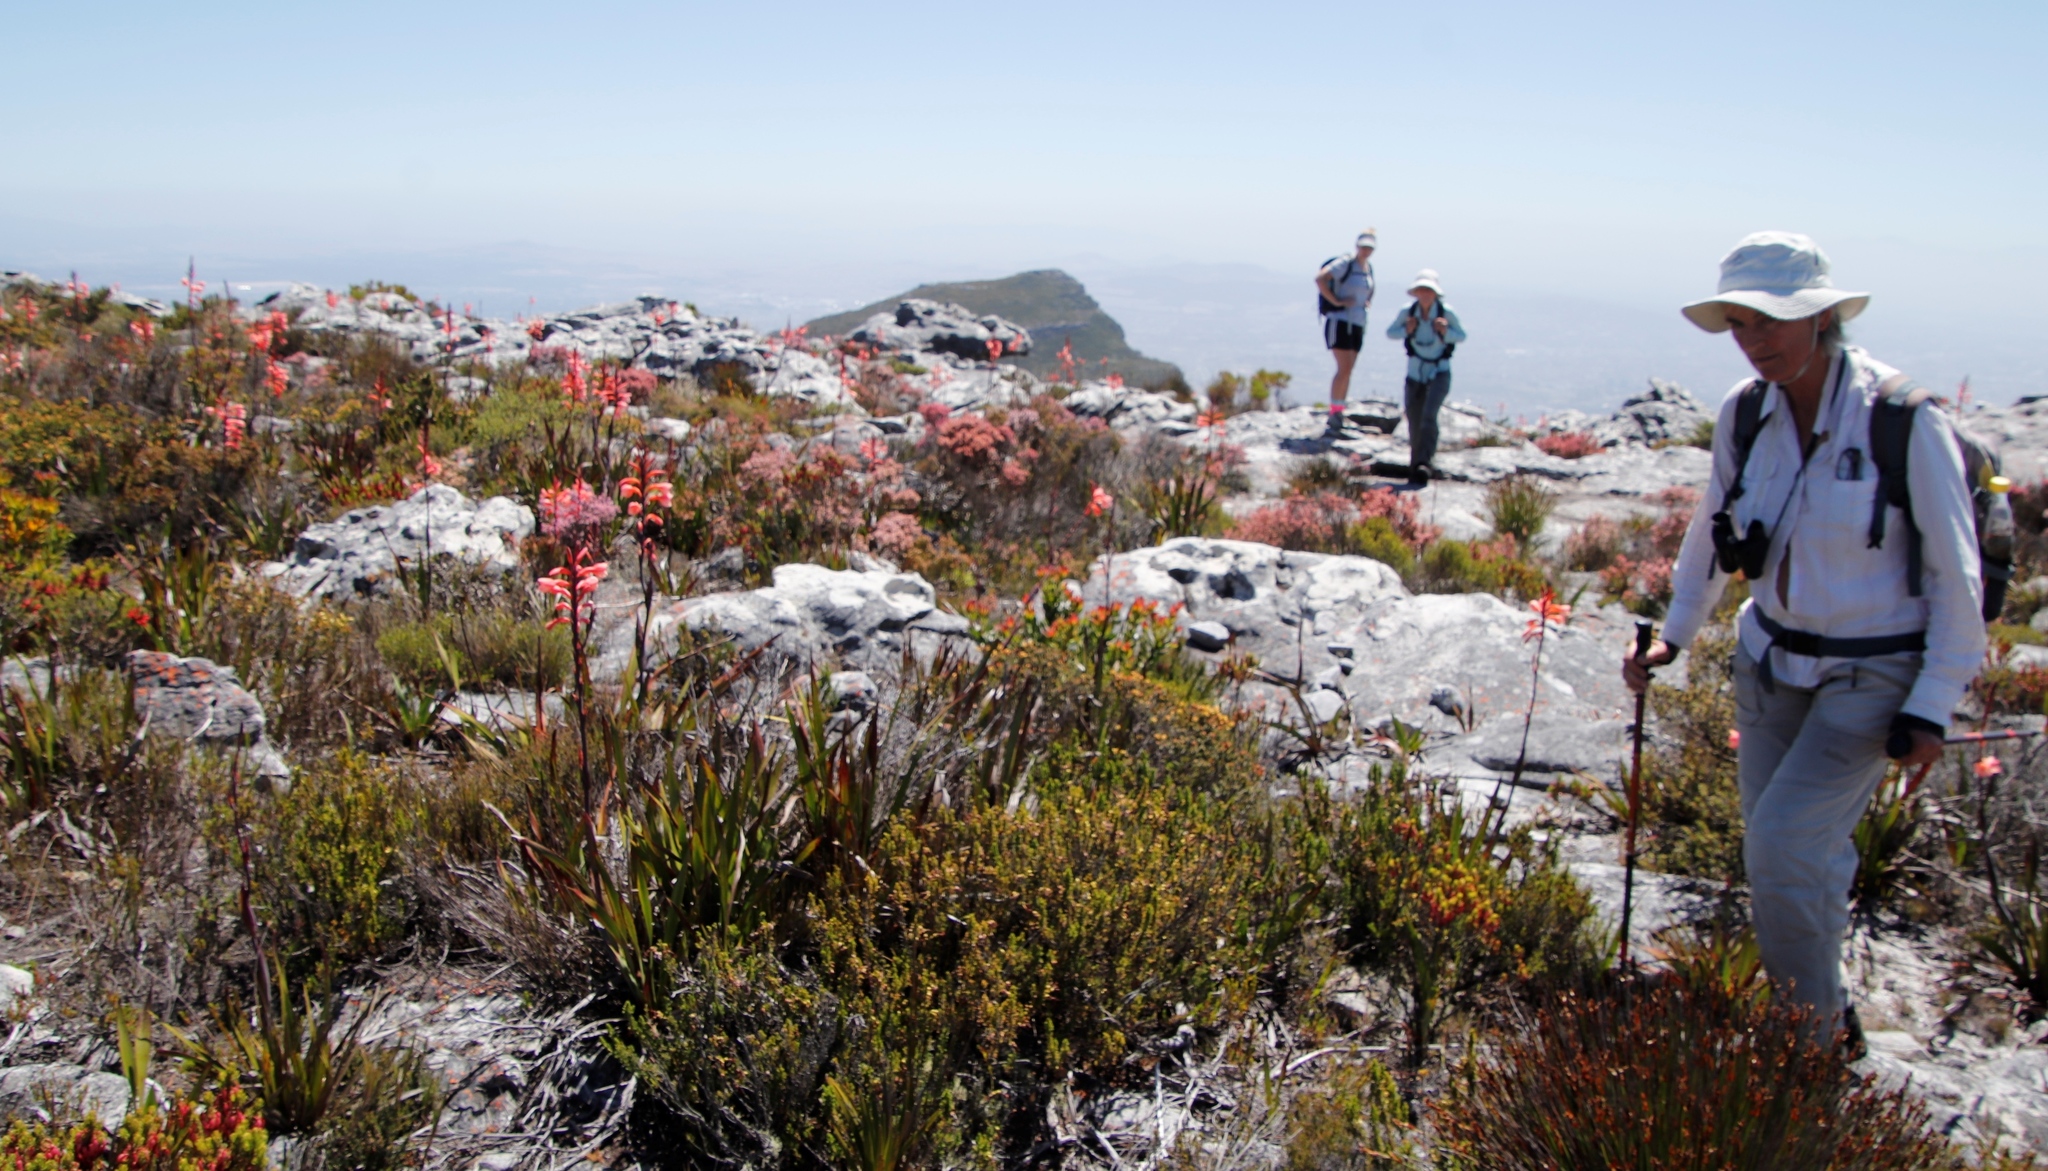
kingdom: Plantae
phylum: Tracheophyta
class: Magnoliopsida
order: Myrtales
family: Penaeaceae
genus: Penaea
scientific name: Penaea mucronata
